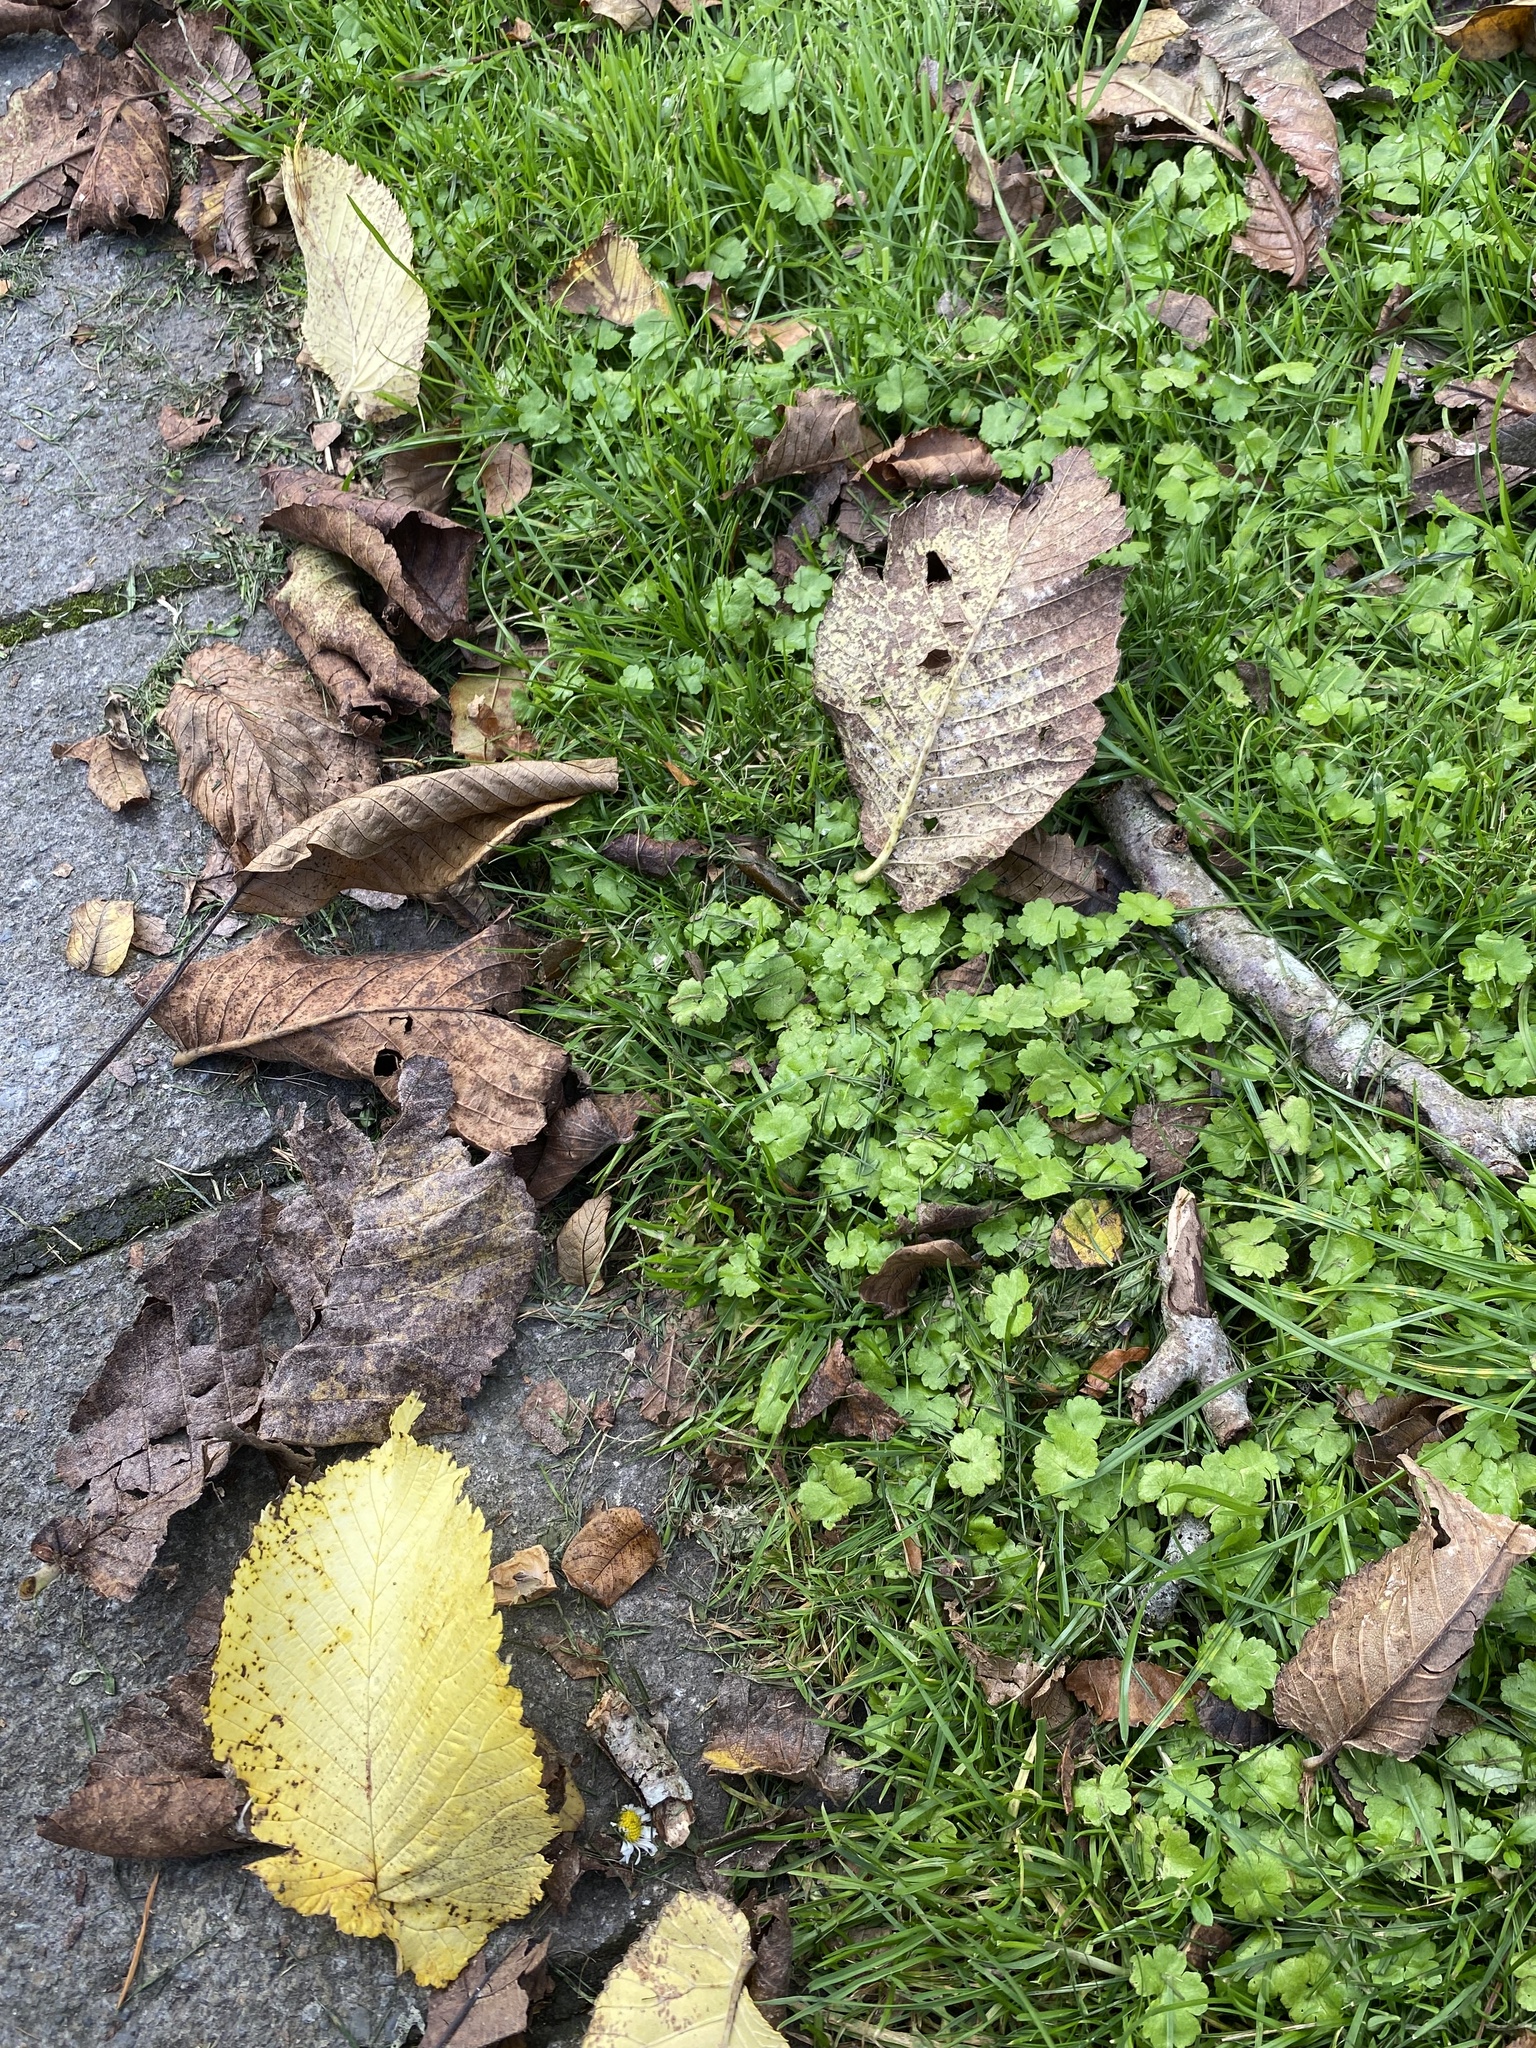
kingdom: Plantae
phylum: Tracheophyta
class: Magnoliopsida
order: Apiales
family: Araliaceae
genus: Hydrocotyle
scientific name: Hydrocotyle heteromeria
